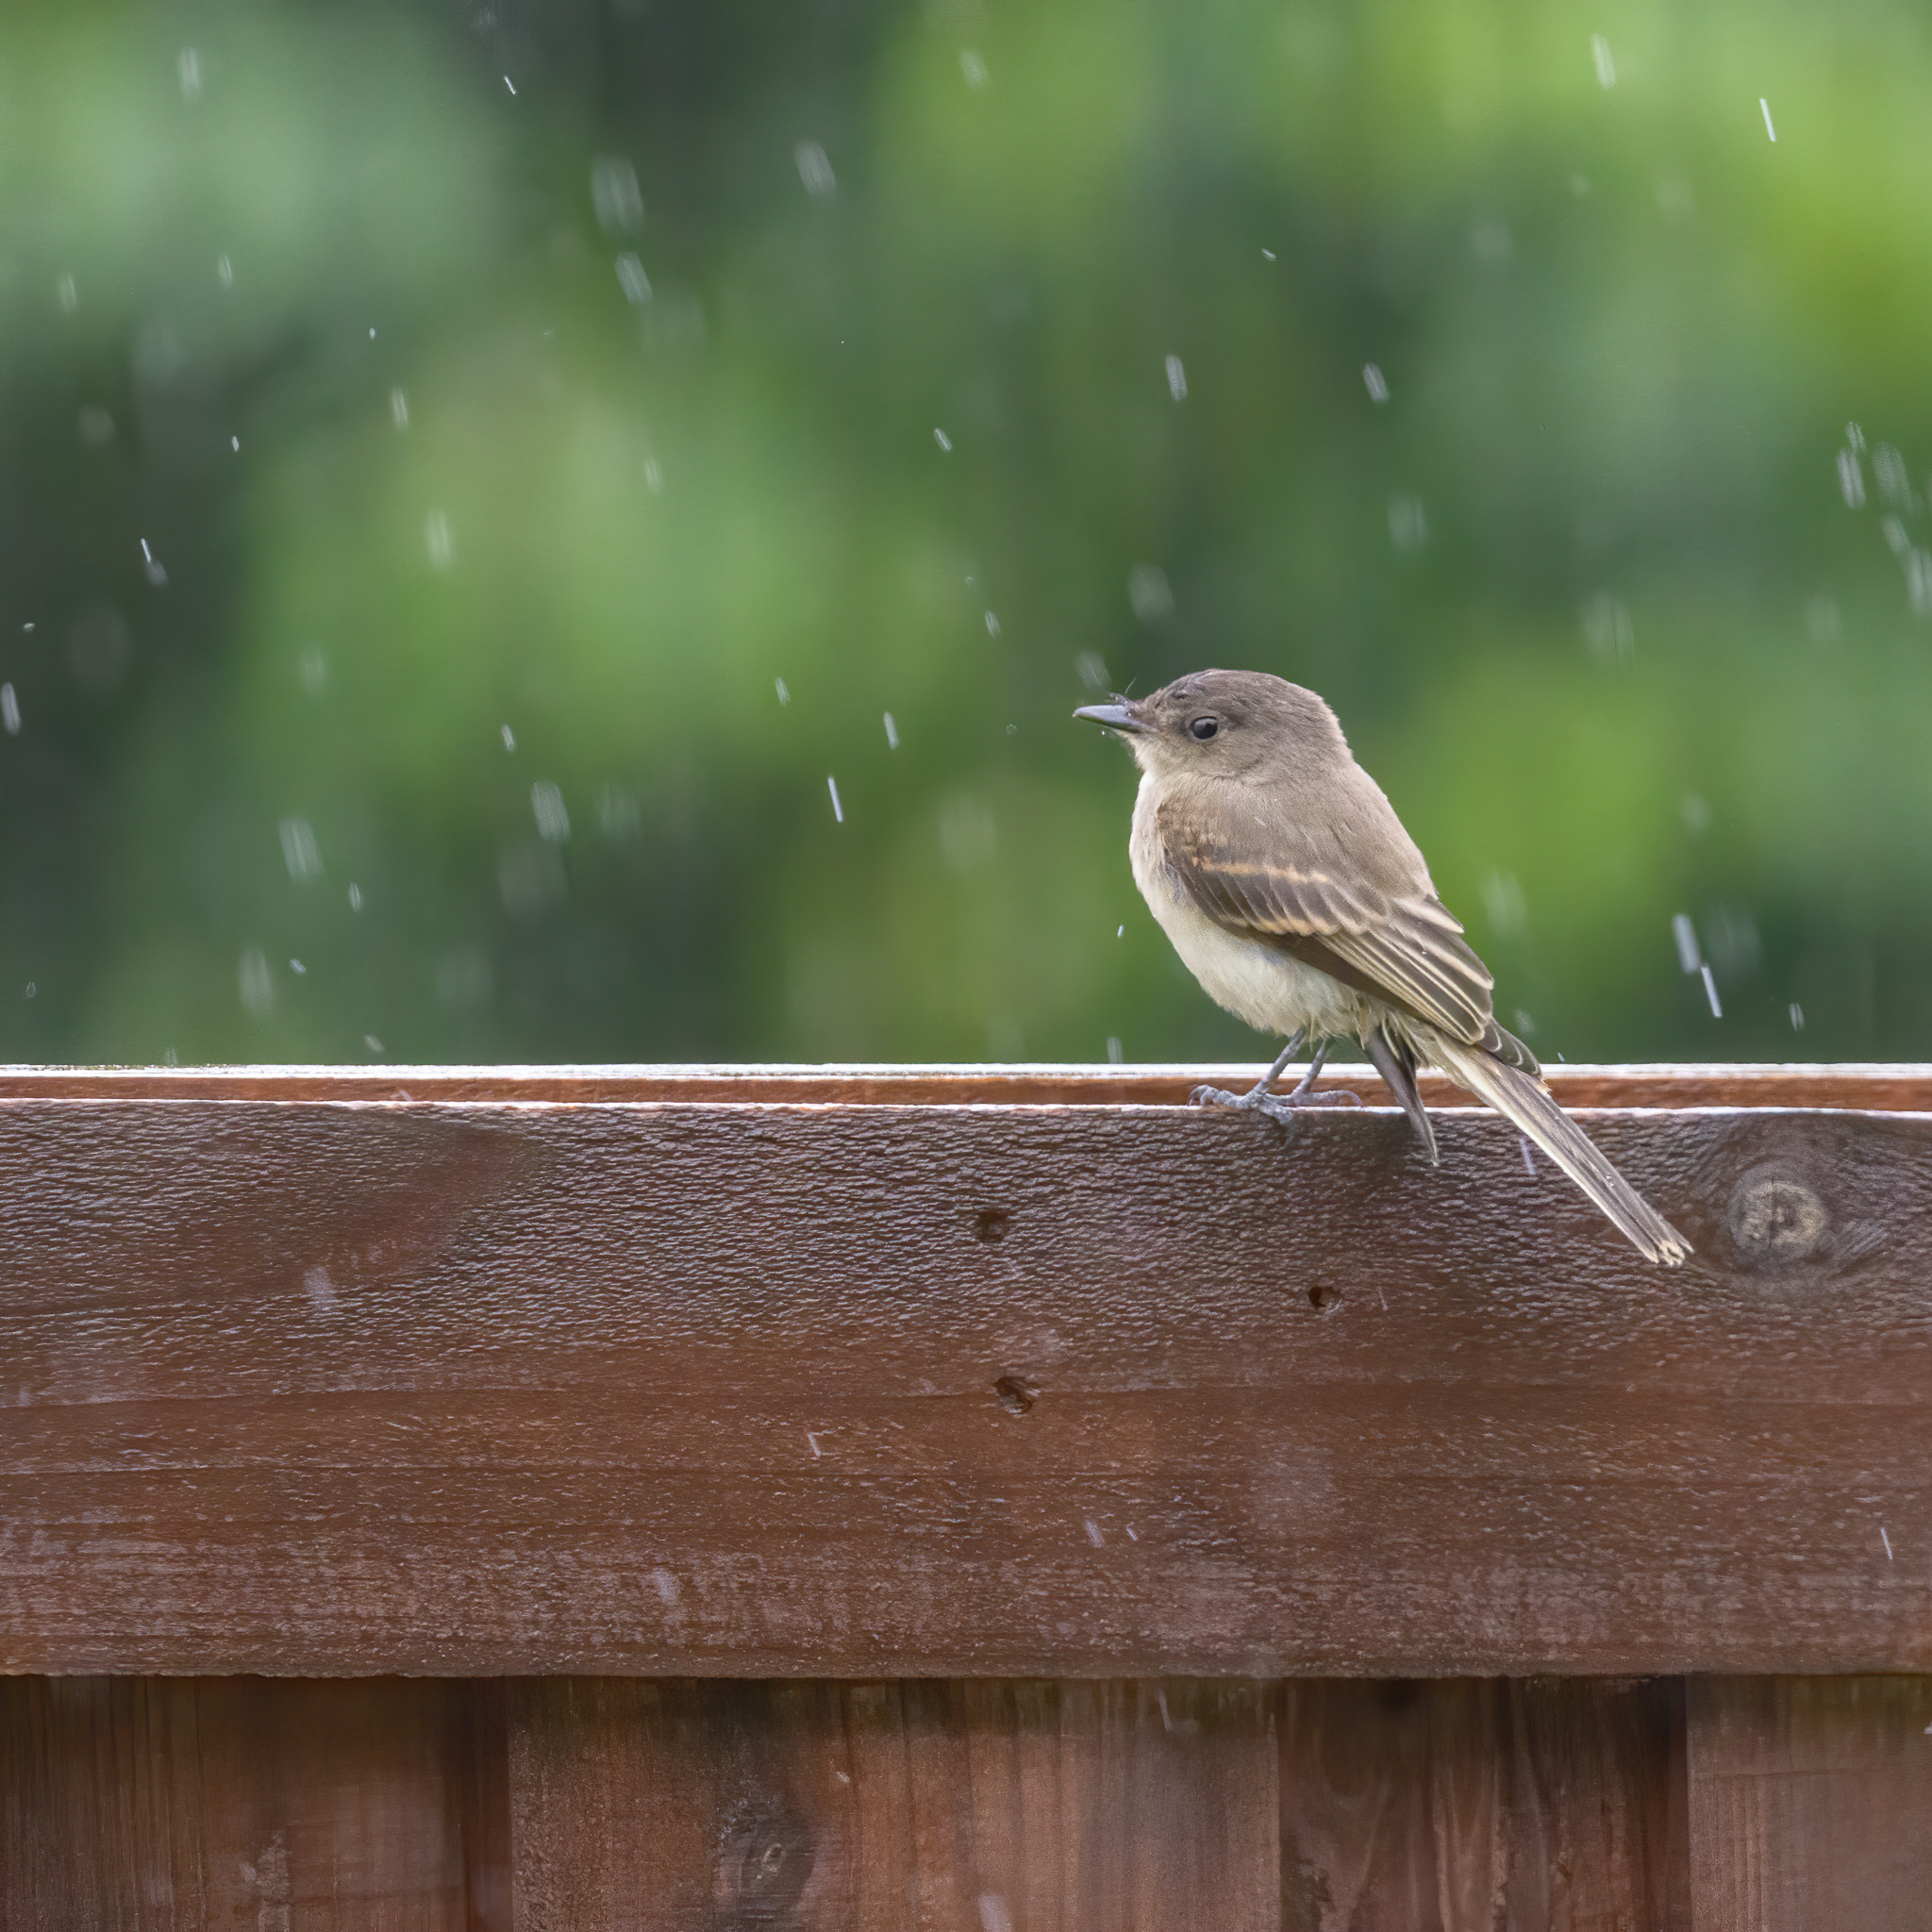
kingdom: Animalia
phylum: Chordata
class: Aves
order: Passeriformes
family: Tyrannidae
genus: Sayornis
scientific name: Sayornis phoebe
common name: Eastern phoebe
